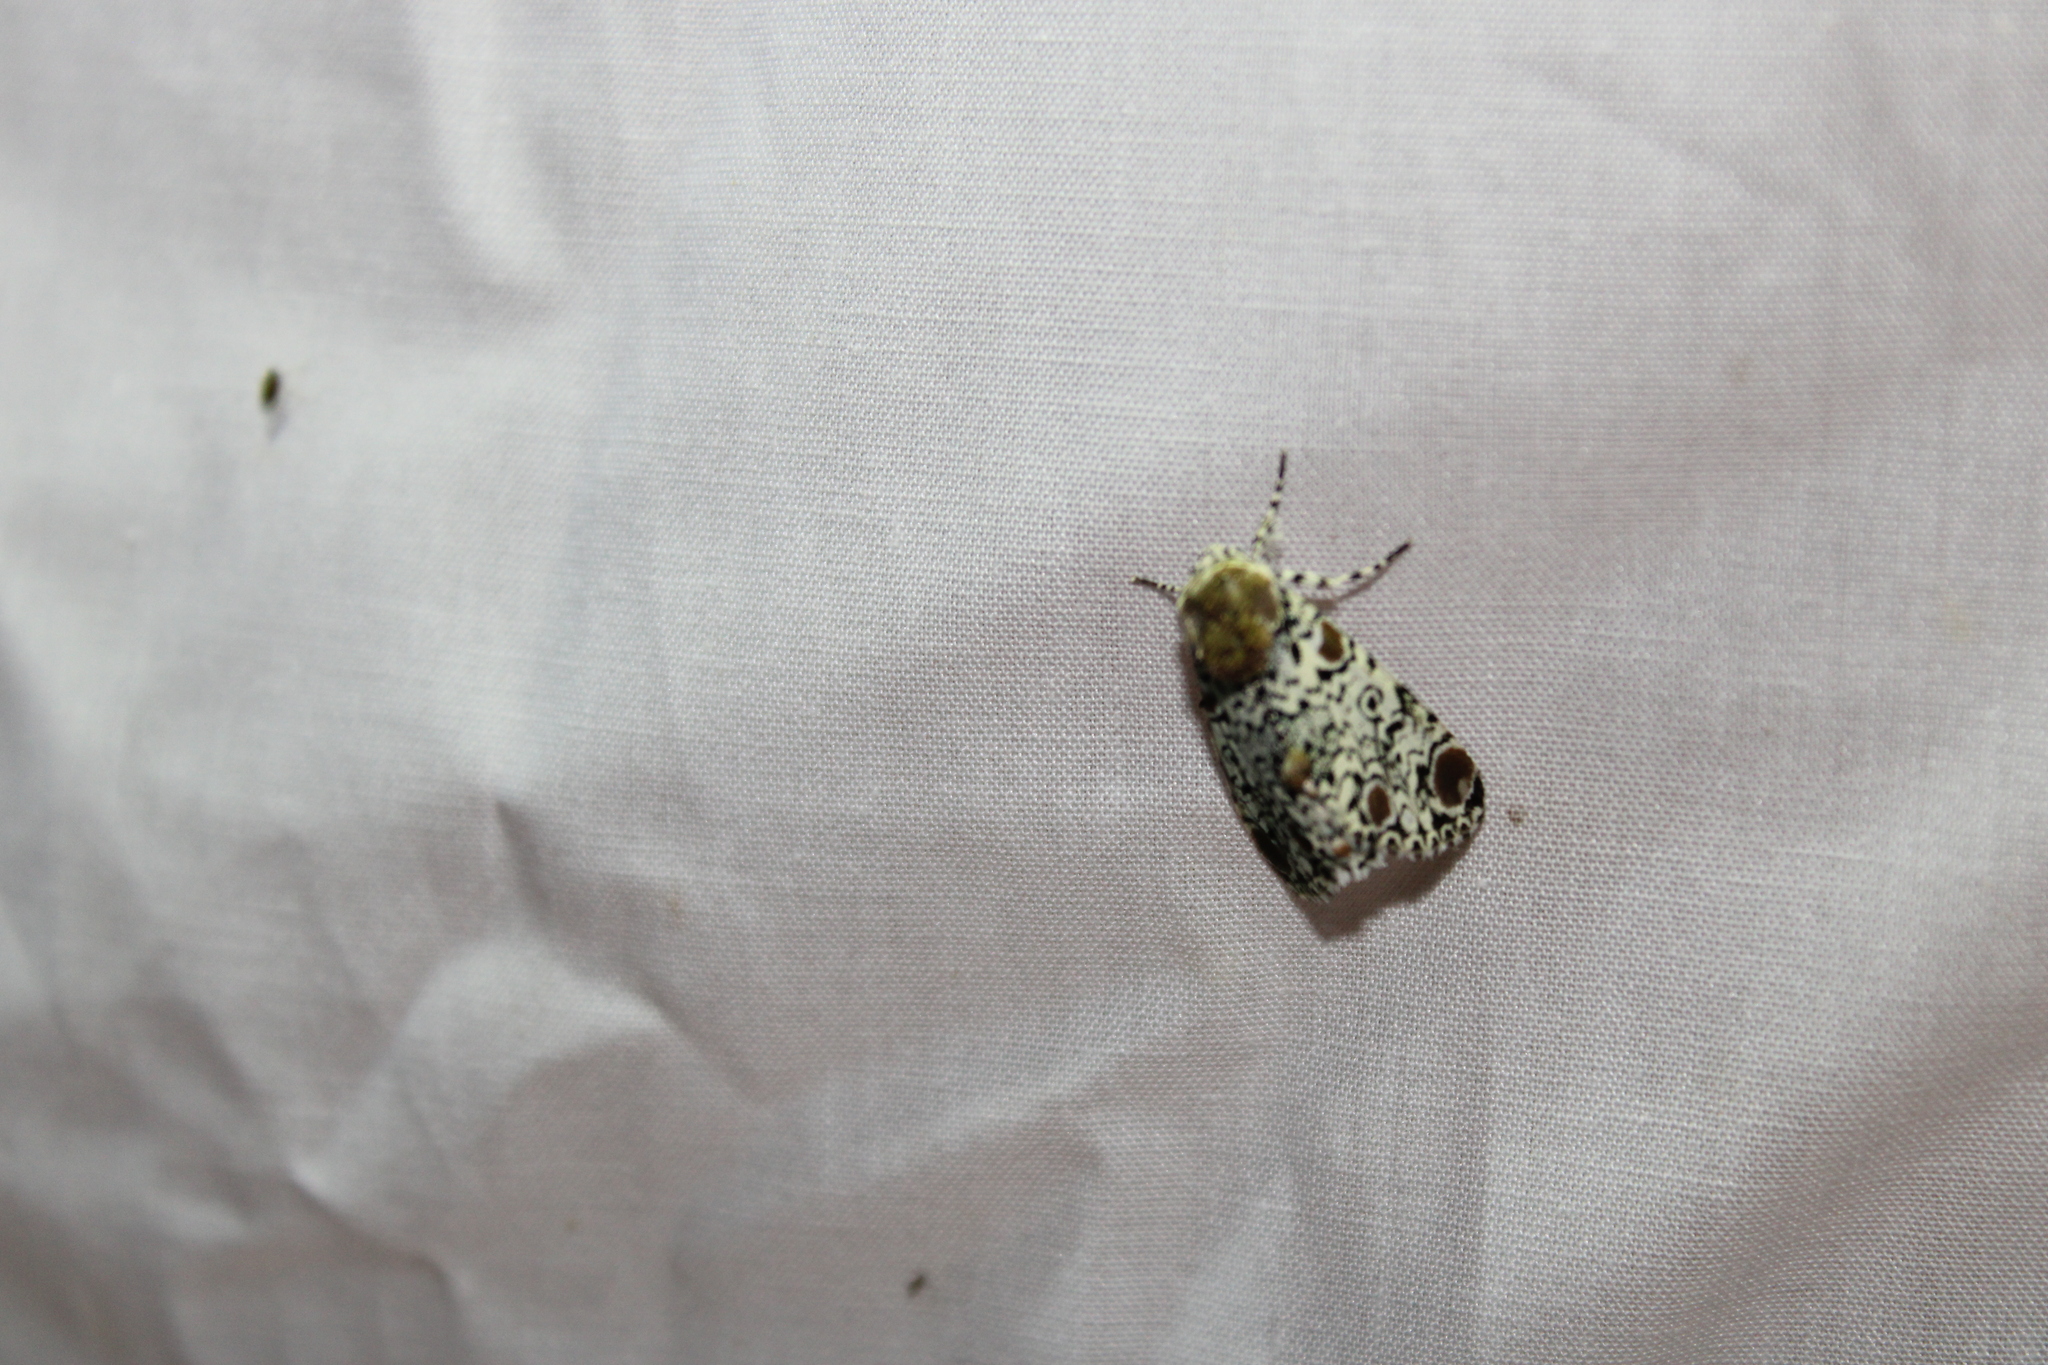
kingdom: Animalia
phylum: Arthropoda
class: Insecta
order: Lepidoptera
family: Noctuidae
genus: Harrisimemna
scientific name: Harrisimemna trisignata
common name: Harris threespot
